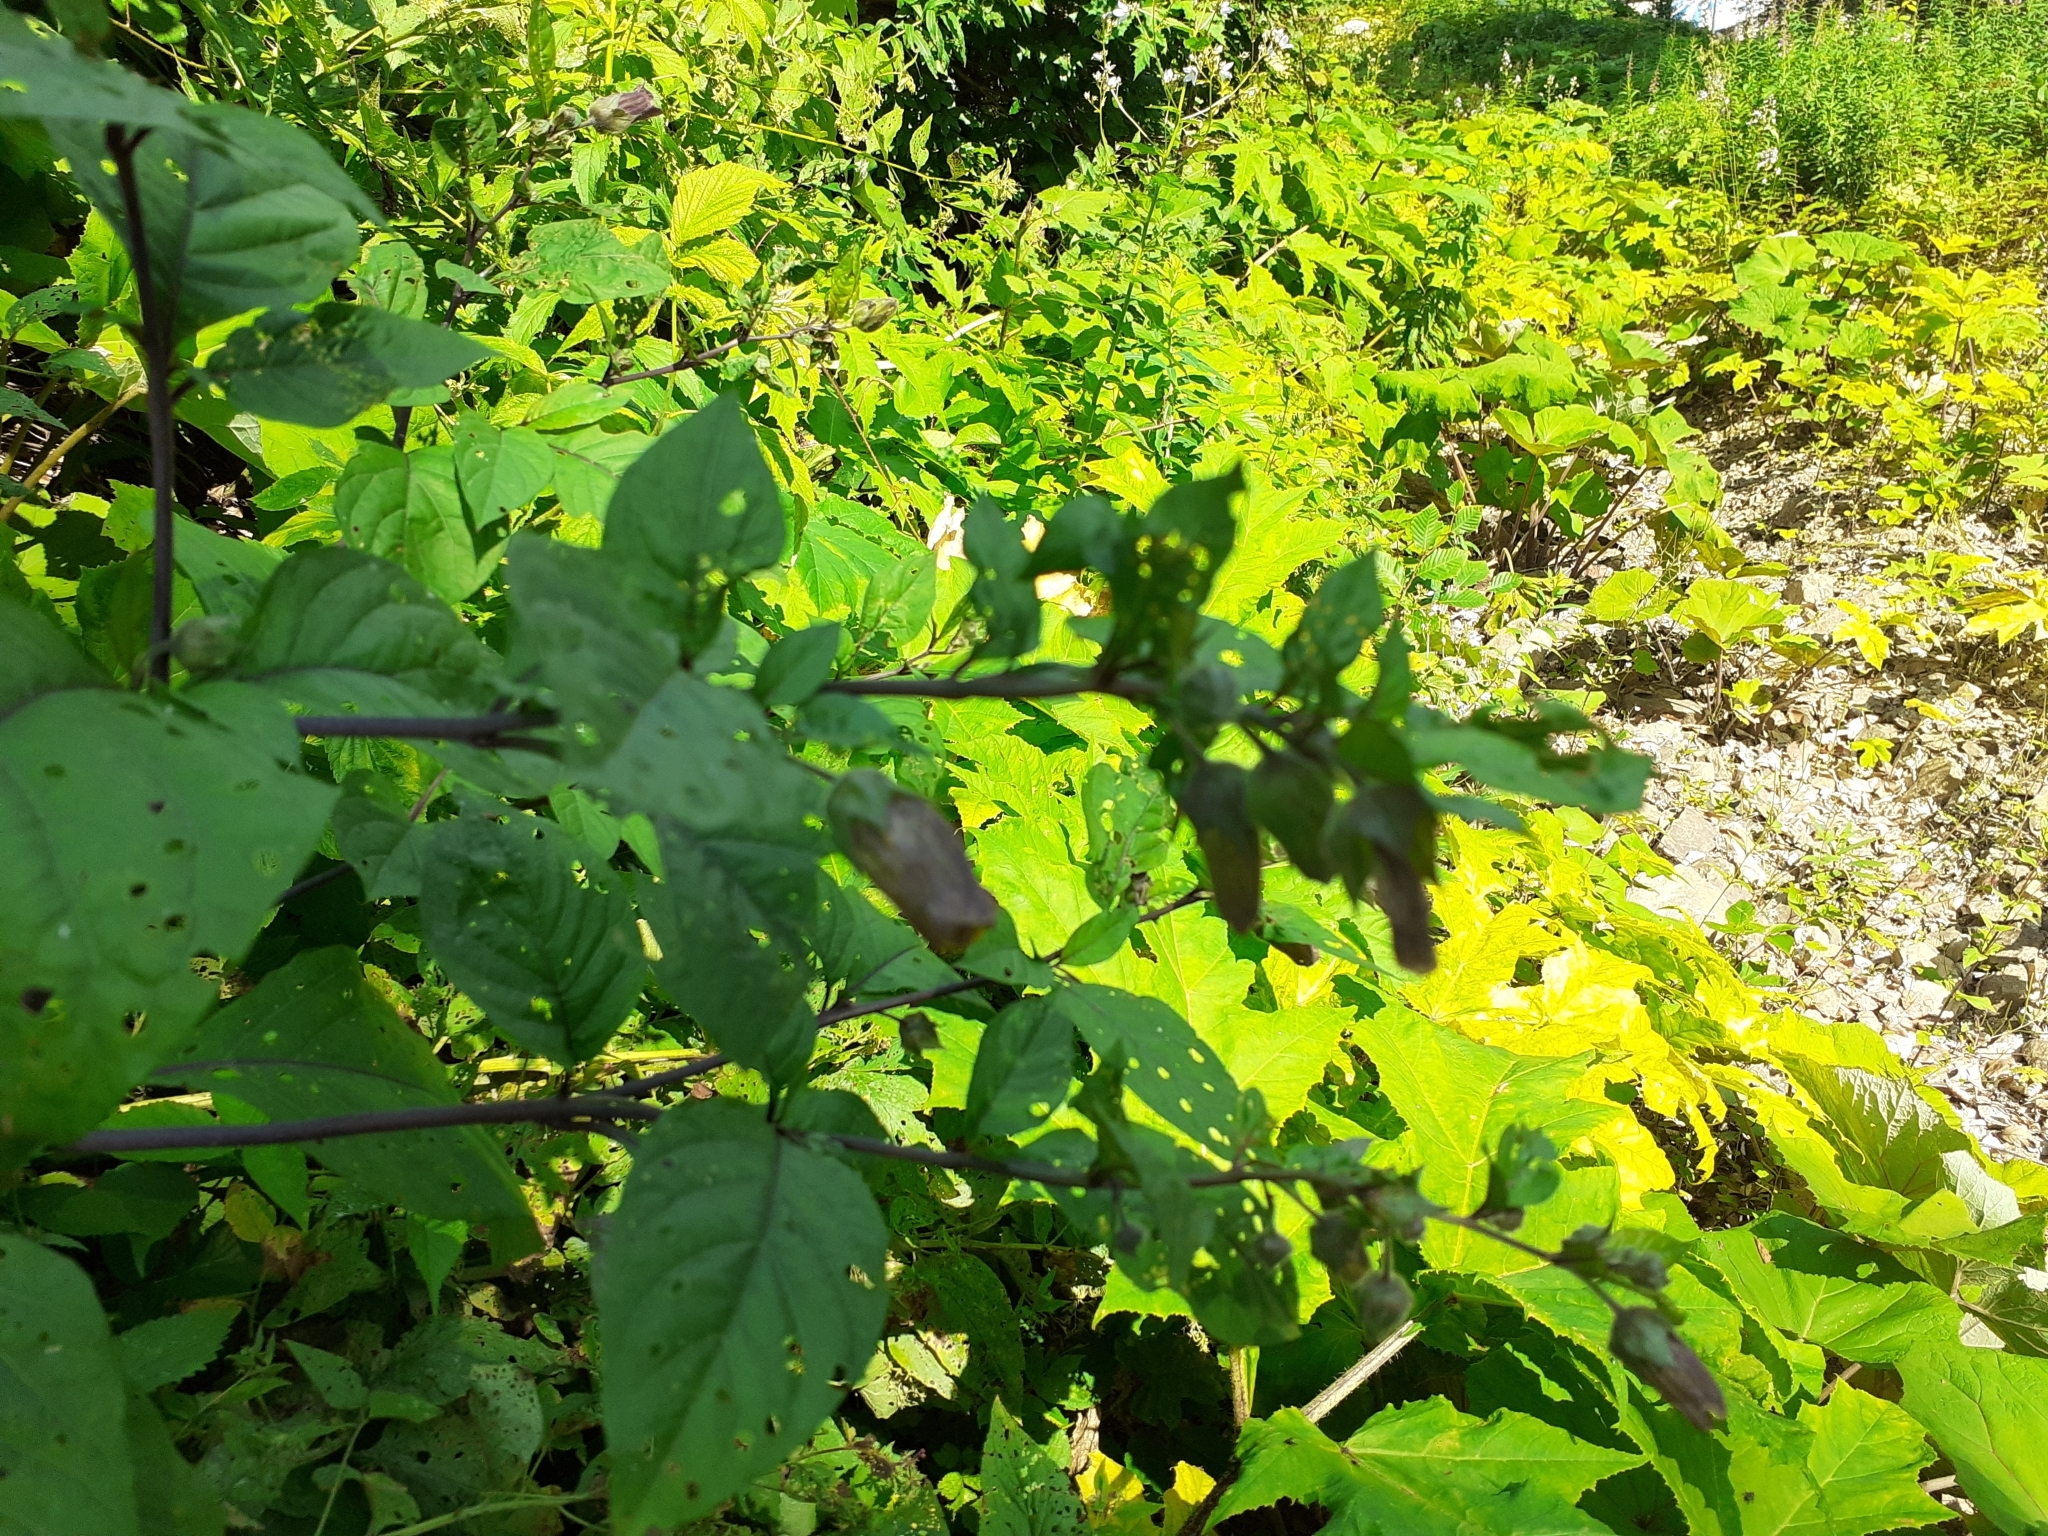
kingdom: Plantae
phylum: Tracheophyta
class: Magnoliopsida
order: Solanales
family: Solanaceae
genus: Atropa
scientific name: Atropa belladonna
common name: Deadly nightshade
